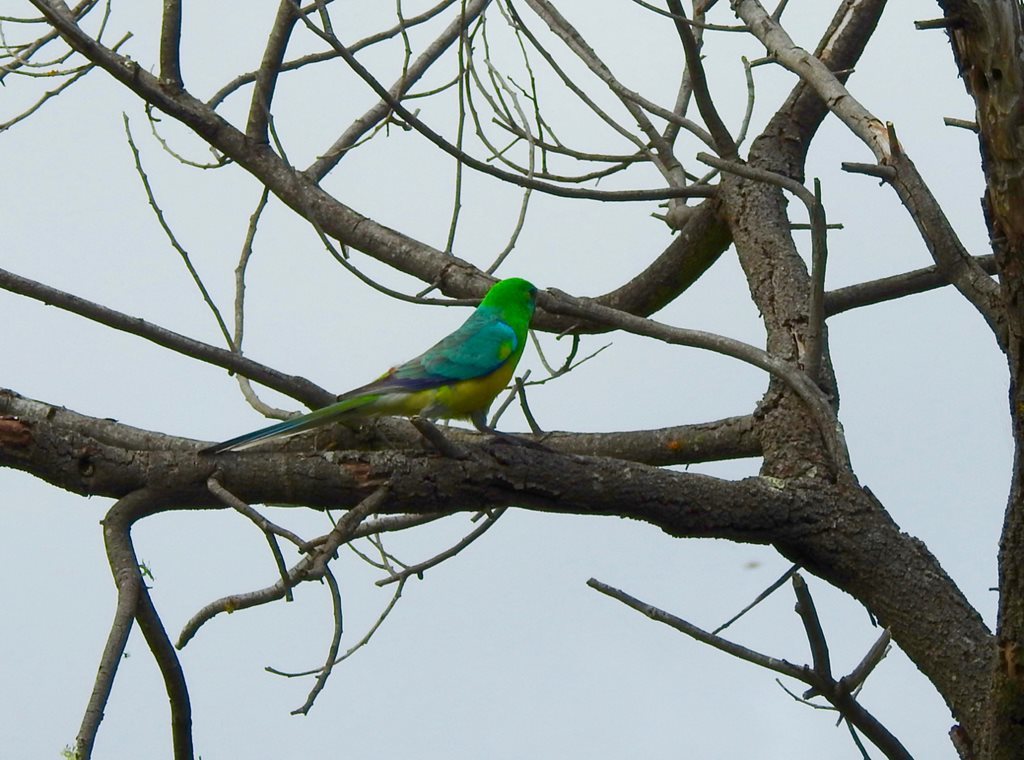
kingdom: Animalia
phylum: Chordata
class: Aves
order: Psittaciformes
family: Psittacidae
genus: Psephotus
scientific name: Psephotus haematonotus
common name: Red-rumped parrot
